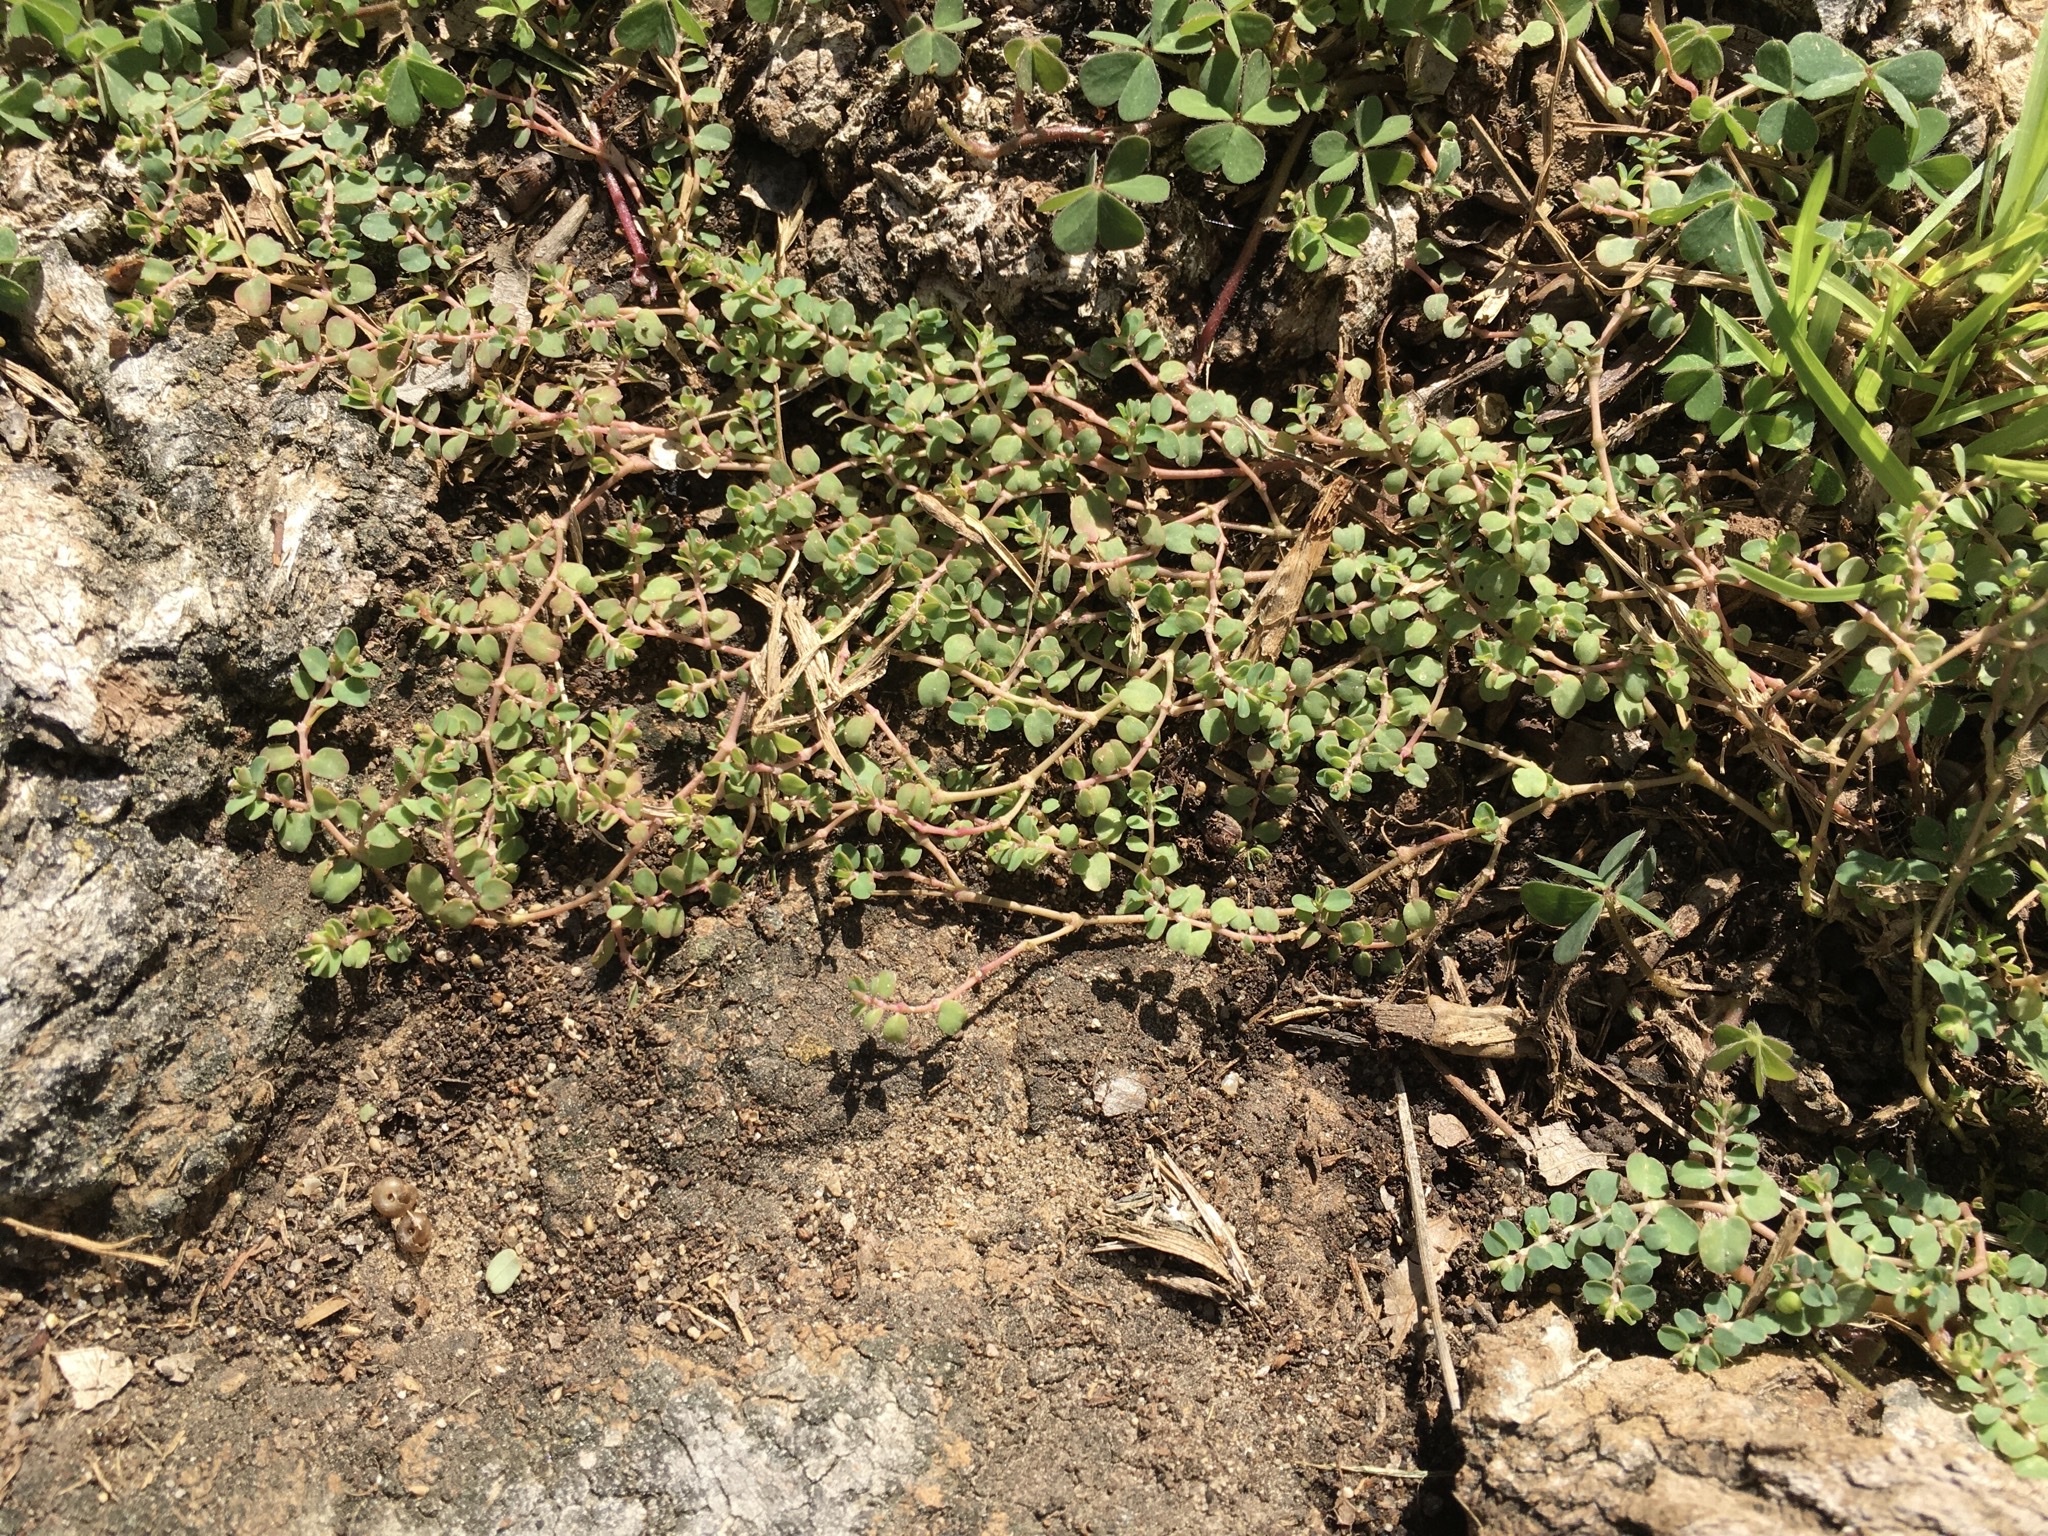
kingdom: Plantae
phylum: Tracheophyta
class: Magnoliopsida
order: Malpighiales
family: Euphorbiaceae
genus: Euphorbia
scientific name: Euphorbia serpens
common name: Matted sandmat
